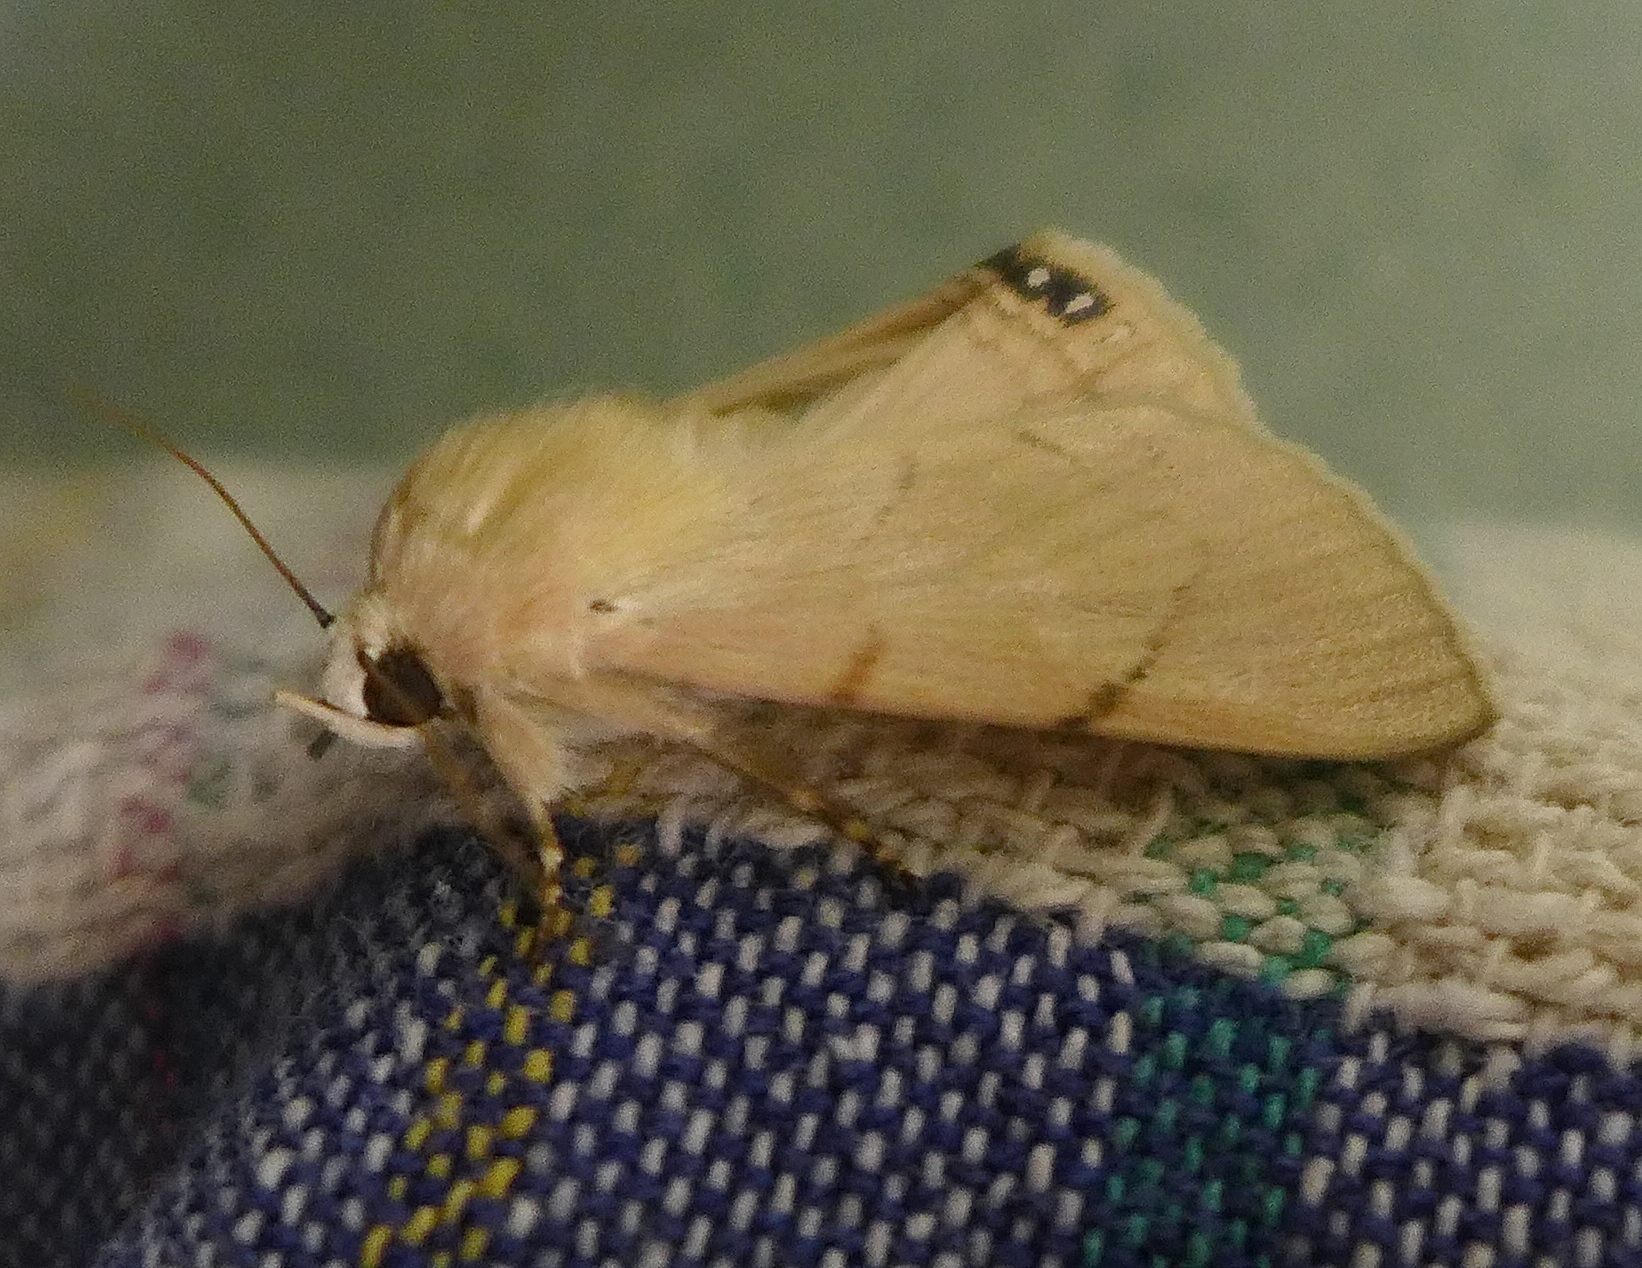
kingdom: Animalia
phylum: Arthropoda
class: Insecta
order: Lepidoptera
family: Erebidae
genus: Litoprosopus
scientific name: Litoprosopus coachella
